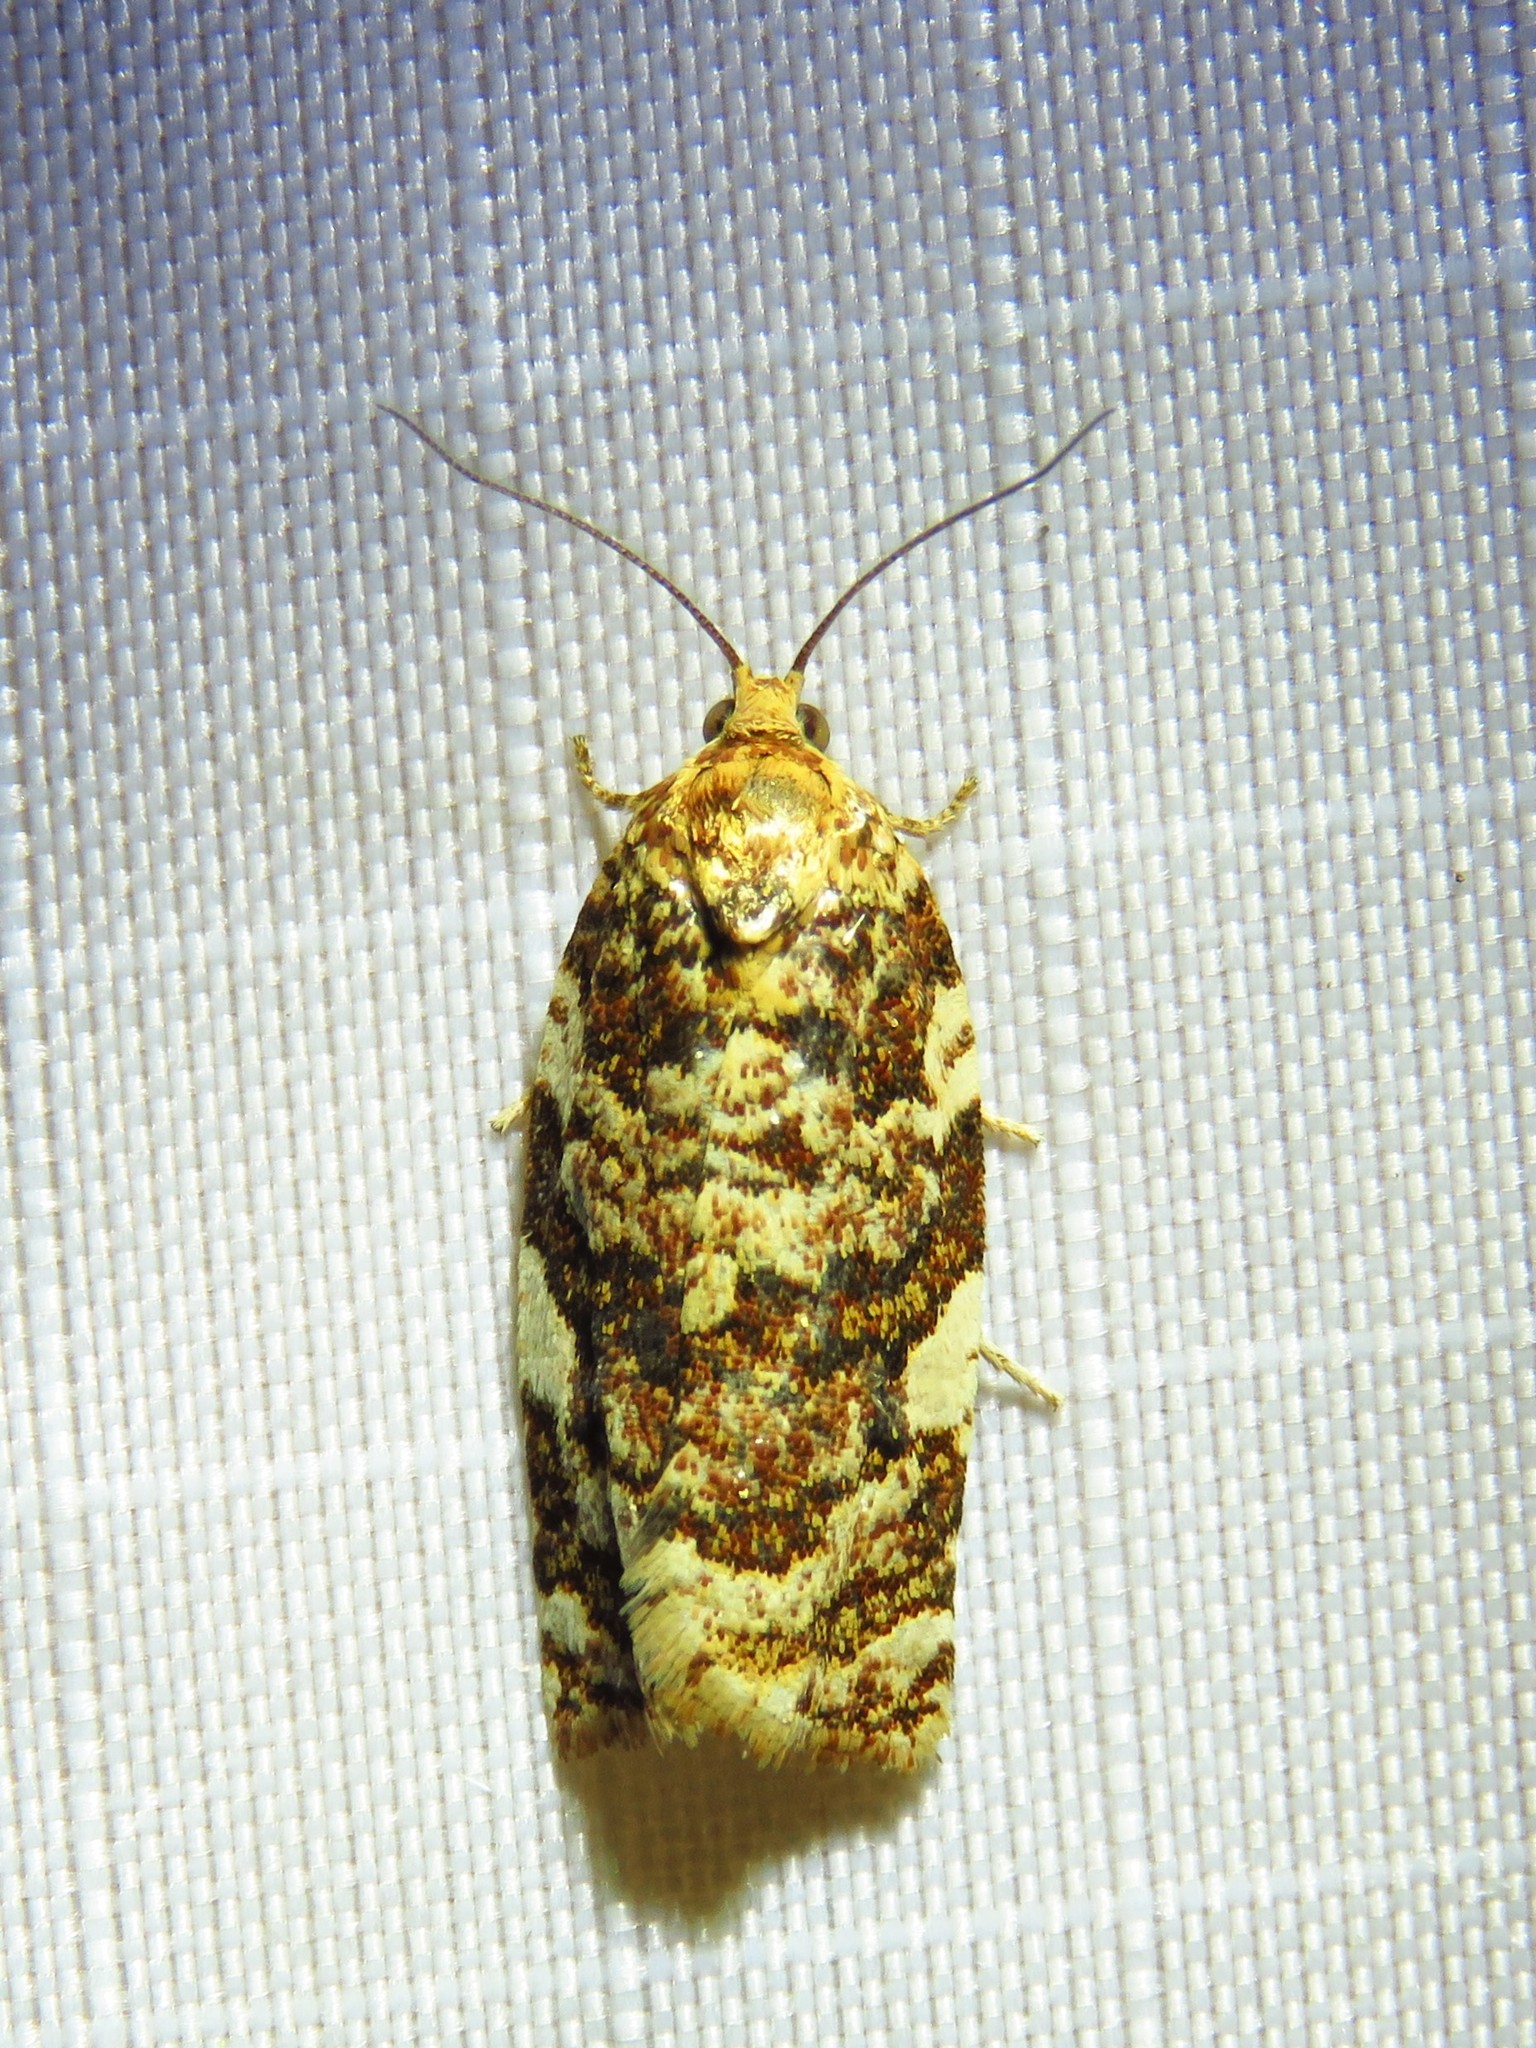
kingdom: Animalia
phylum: Arthropoda
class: Insecta
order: Lepidoptera
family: Tortricidae
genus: Archips
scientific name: Archips argyrospila
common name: Fruit-tree leafroller moth
